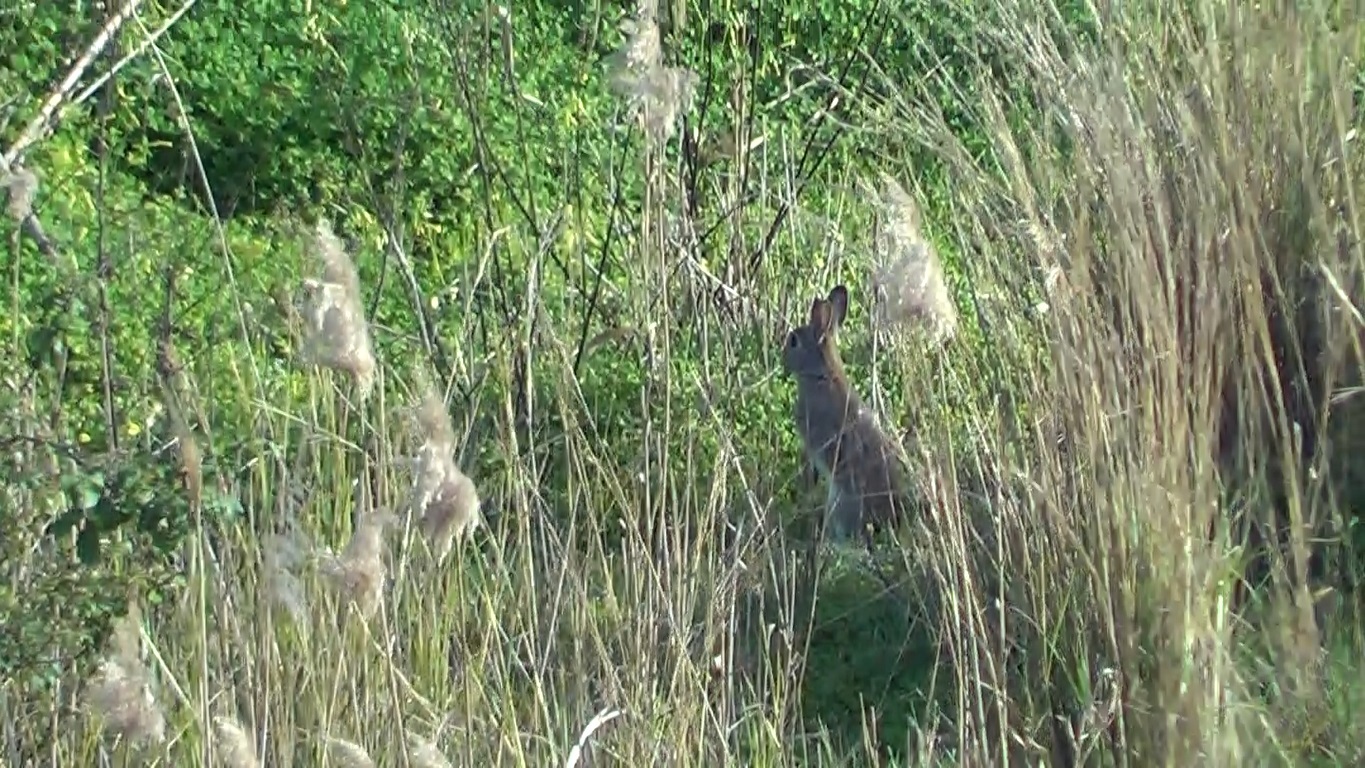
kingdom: Animalia
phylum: Chordata
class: Mammalia
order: Lagomorpha
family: Leporidae
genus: Oryctolagus
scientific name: Oryctolagus cuniculus
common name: European rabbit
